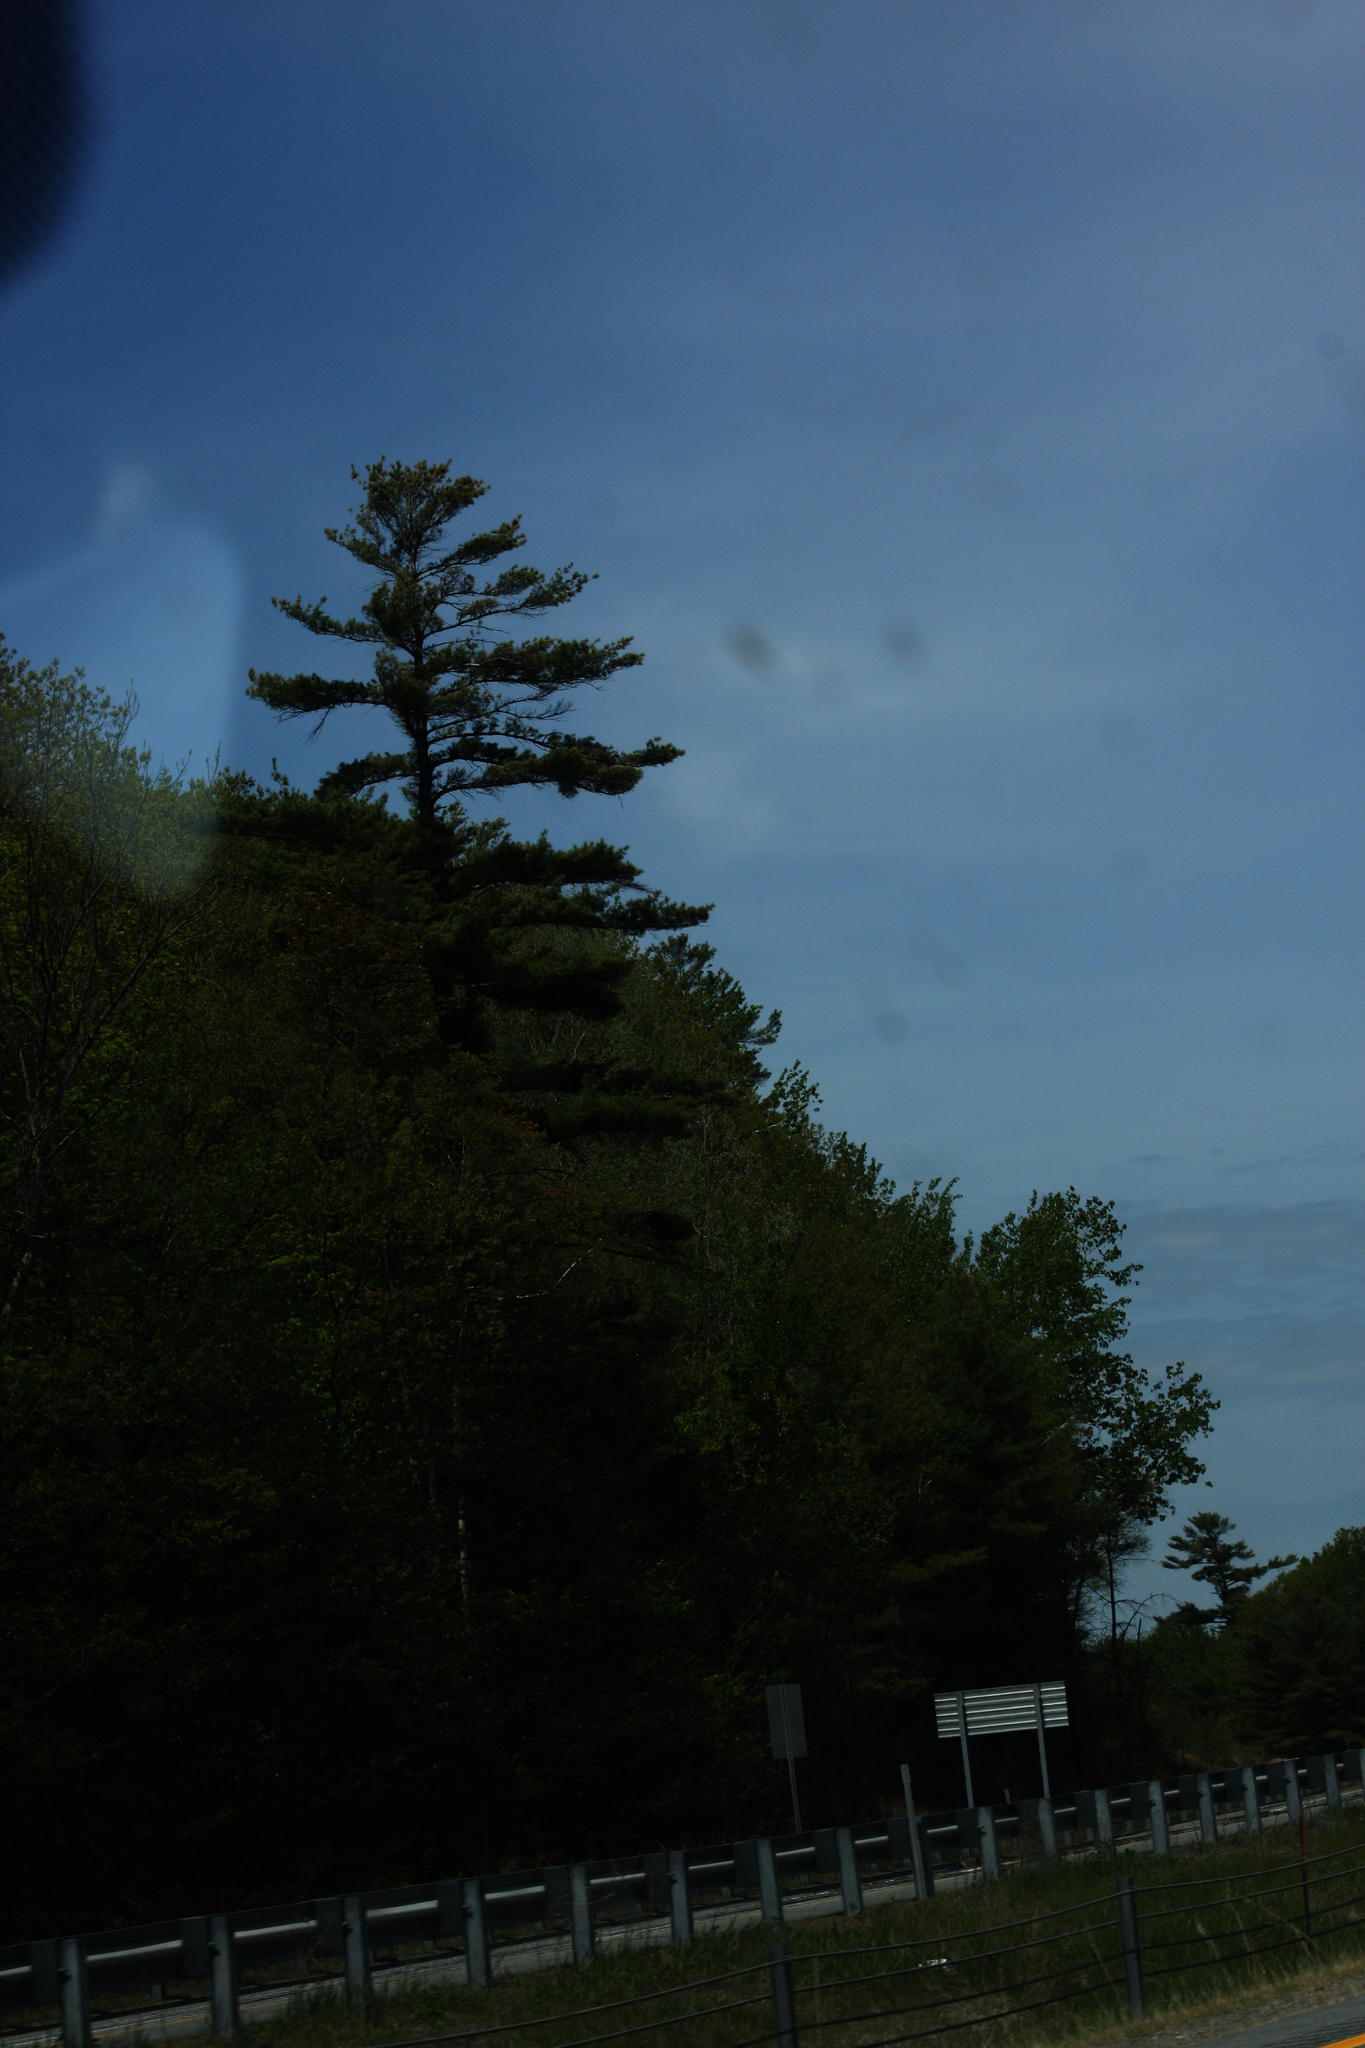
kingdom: Plantae
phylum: Tracheophyta
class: Pinopsida
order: Pinales
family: Pinaceae
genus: Pinus
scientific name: Pinus strobus
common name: Weymouth pine
